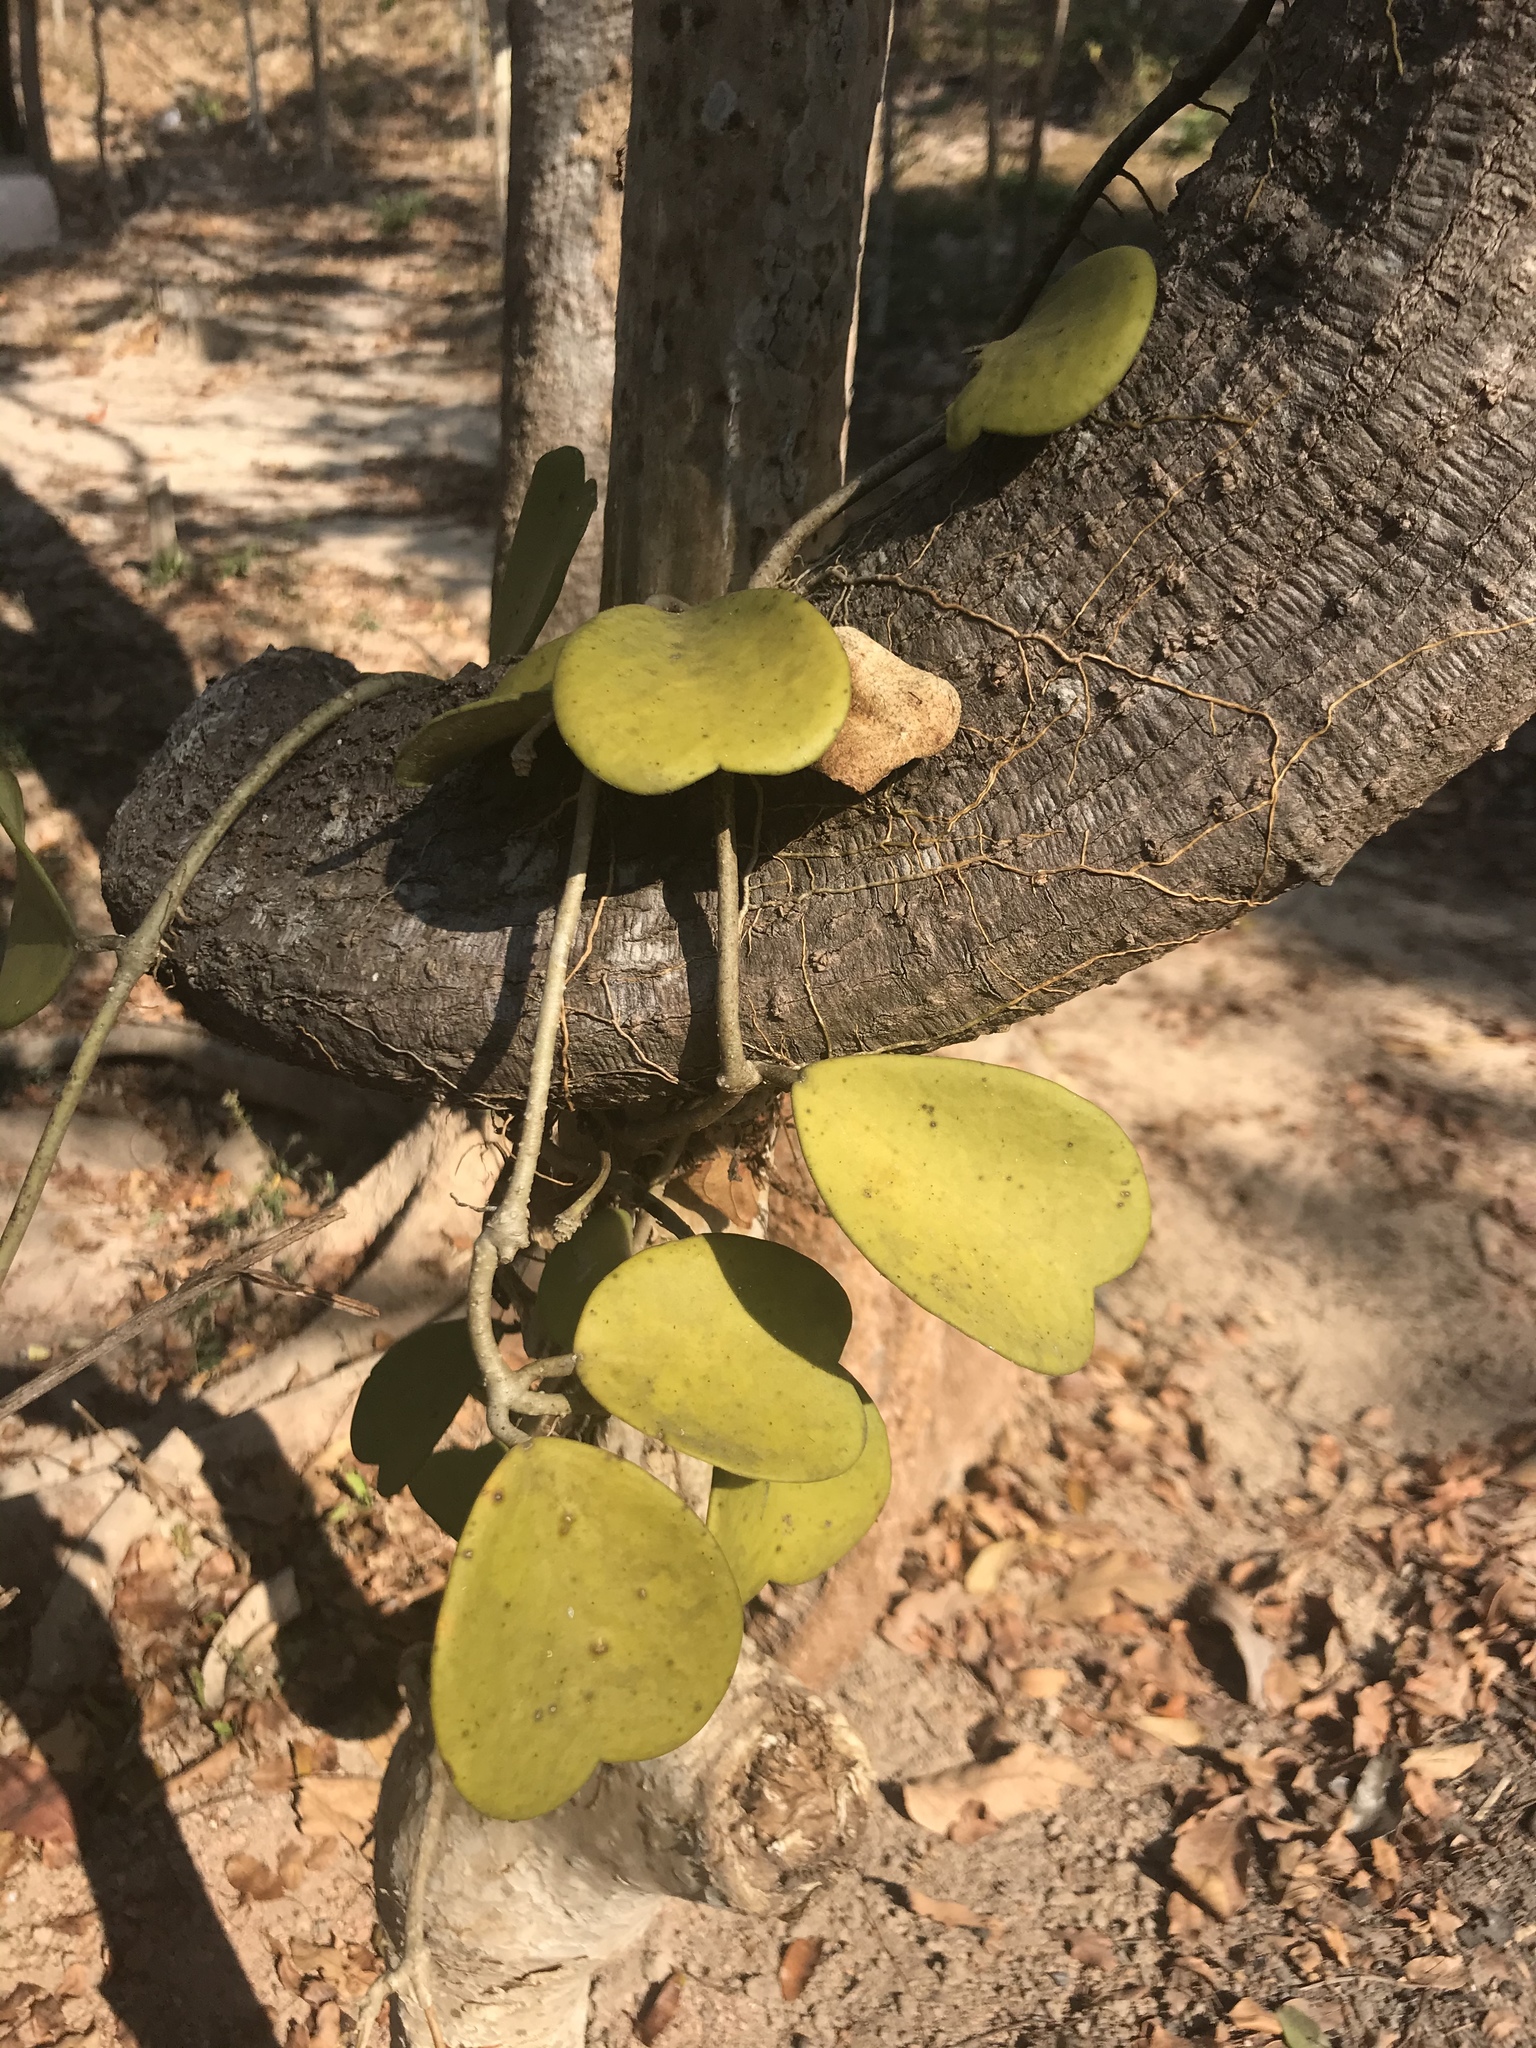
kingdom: Plantae
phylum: Tracheophyta
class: Magnoliopsida
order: Gentianales
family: Apocynaceae
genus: Hoya
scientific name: Hoya kerrii
